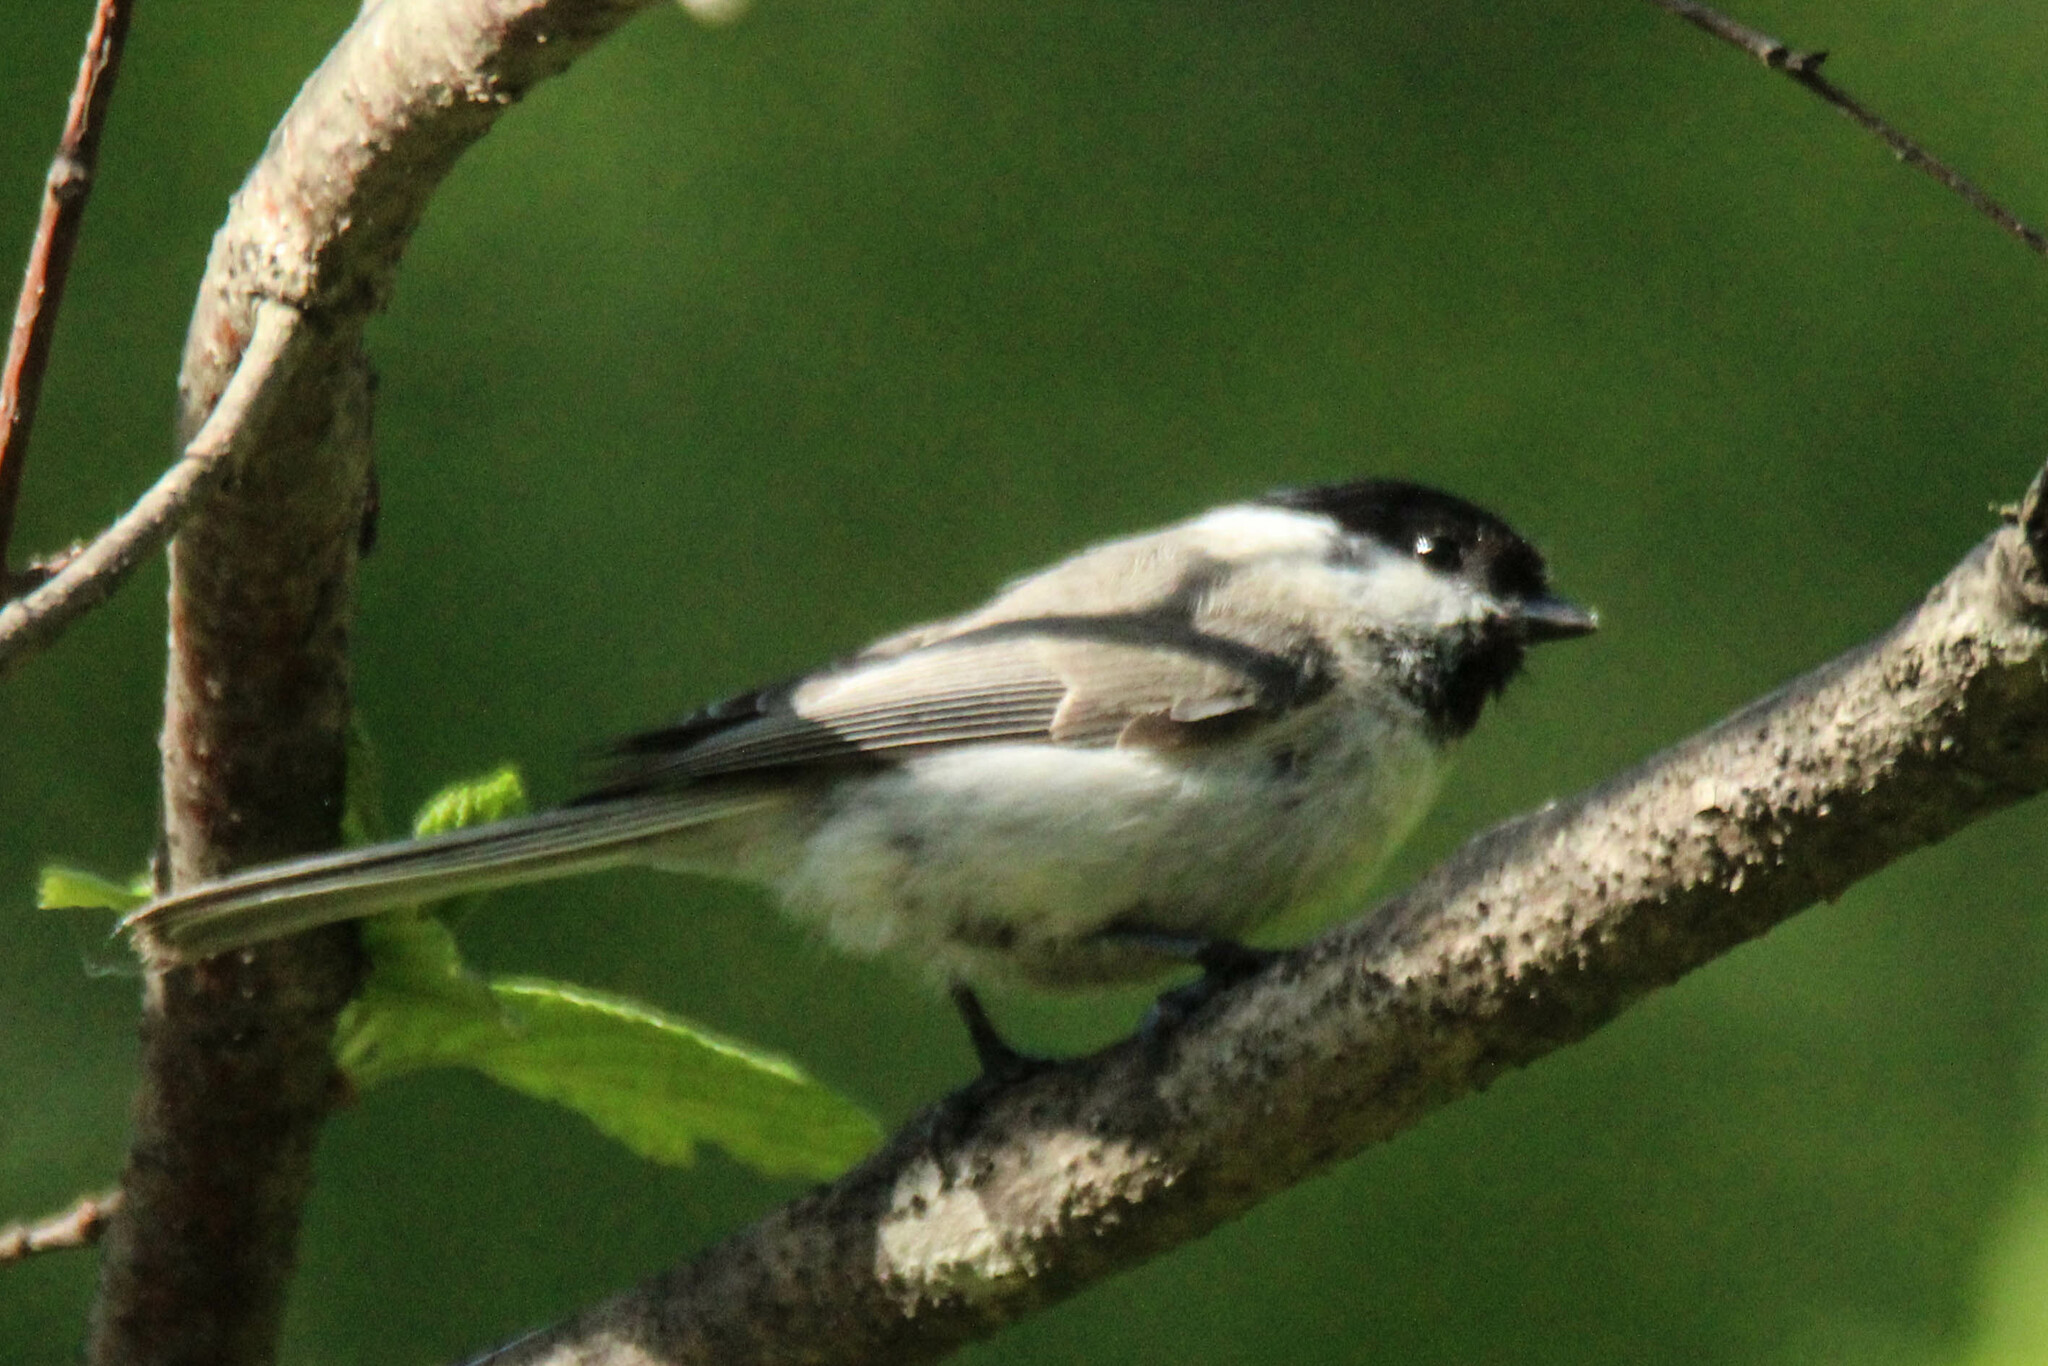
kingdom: Animalia
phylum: Chordata
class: Aves
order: Passeriformes
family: Paridae
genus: Poecile
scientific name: Poecile palustris
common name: Marsh tit
